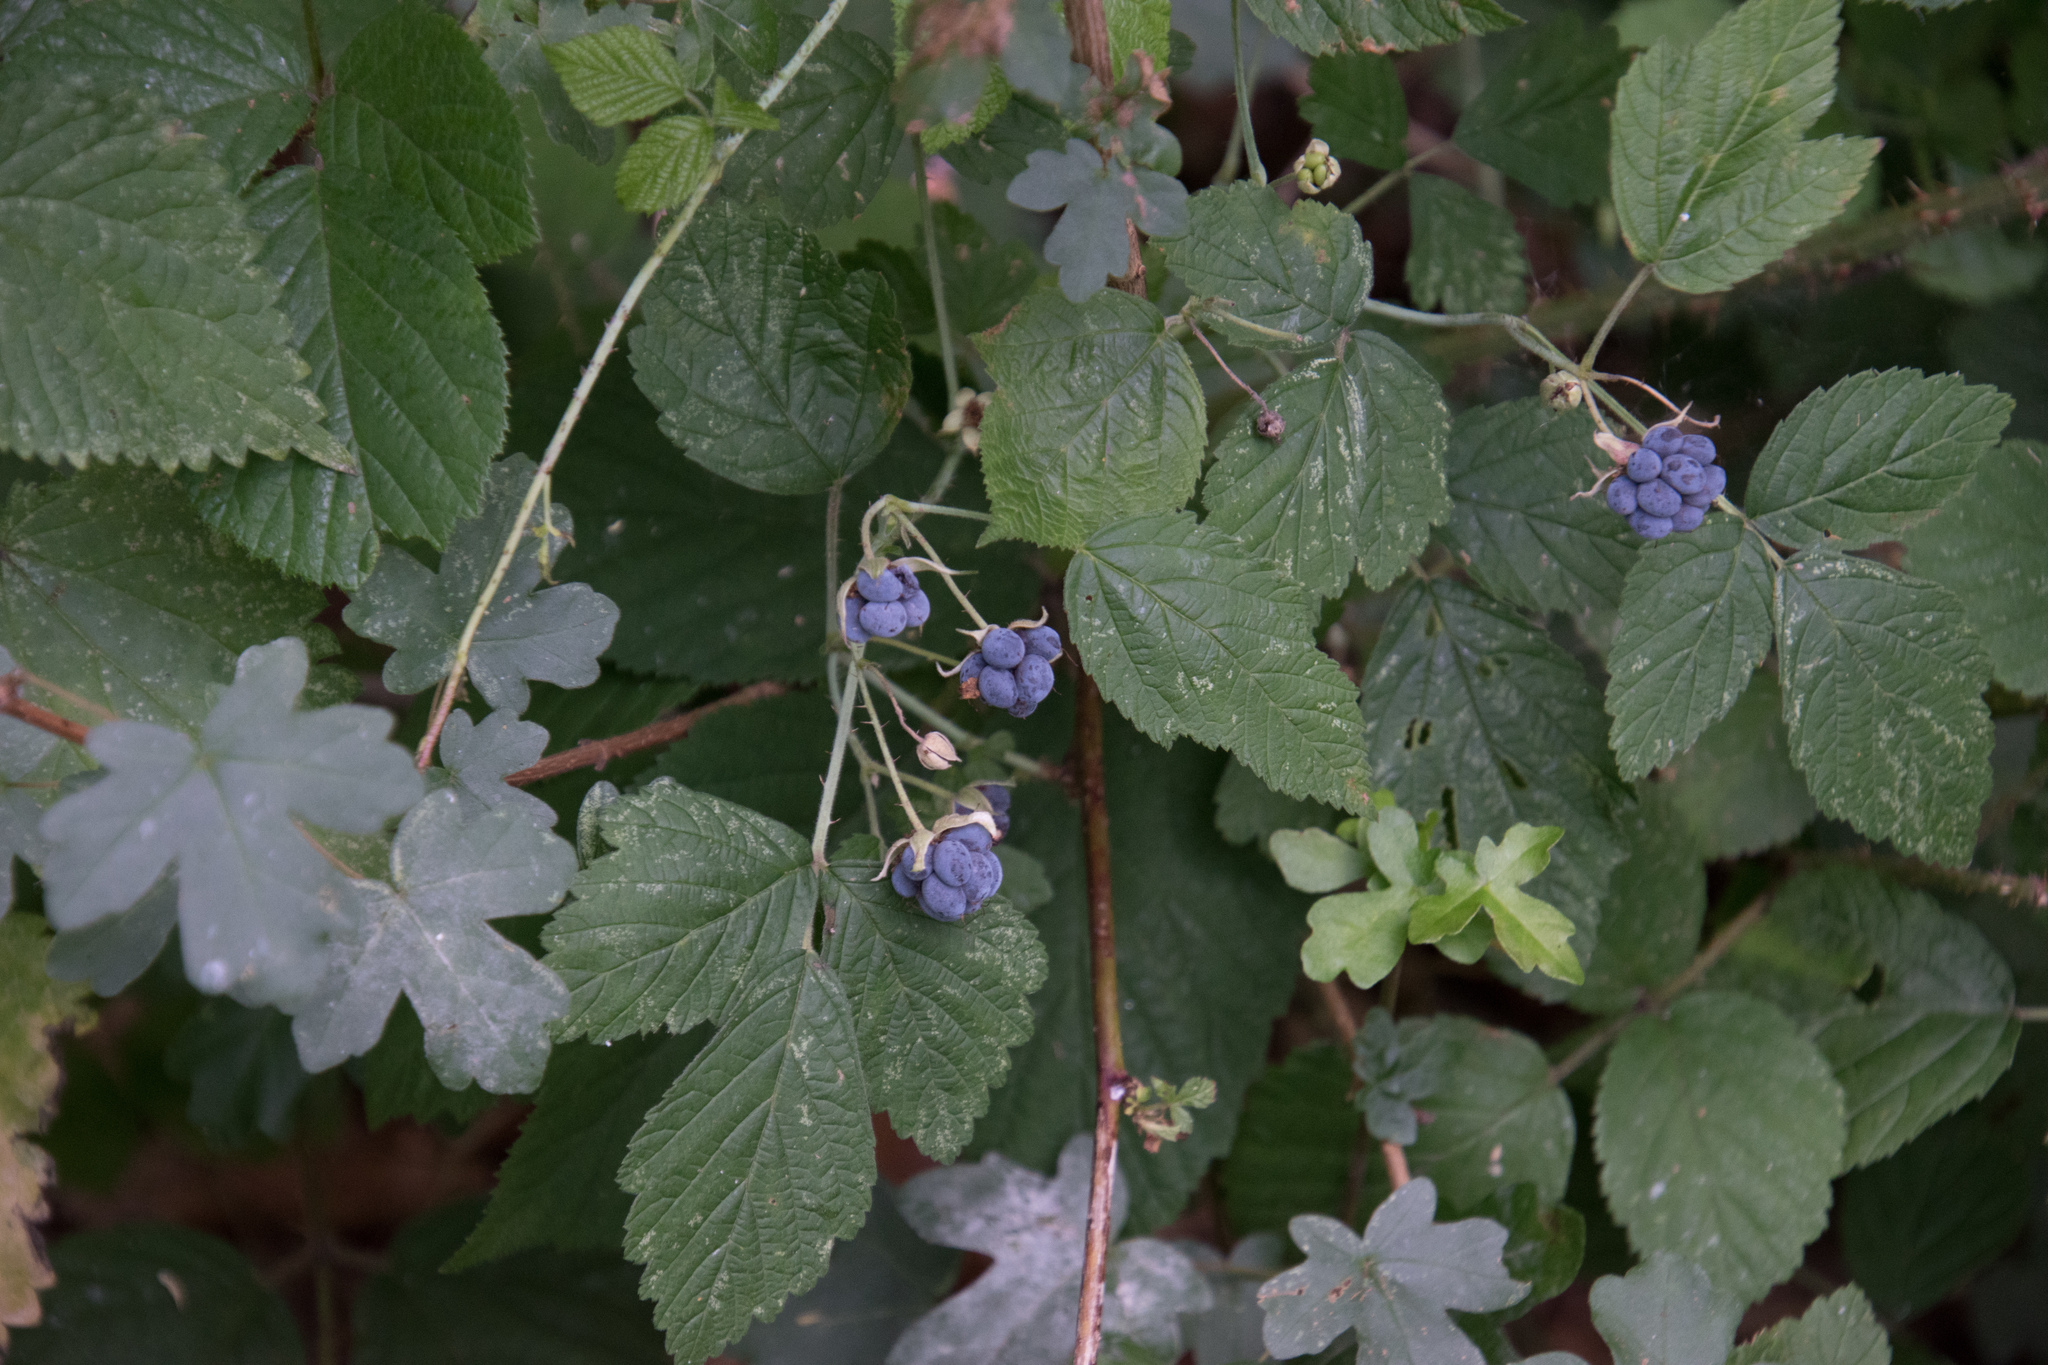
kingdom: Plantae
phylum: Tracheophyta
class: Magnoliopsida
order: Rosales
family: Rosaceae
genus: Rubus
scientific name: Rubus caesius
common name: Dewberry
